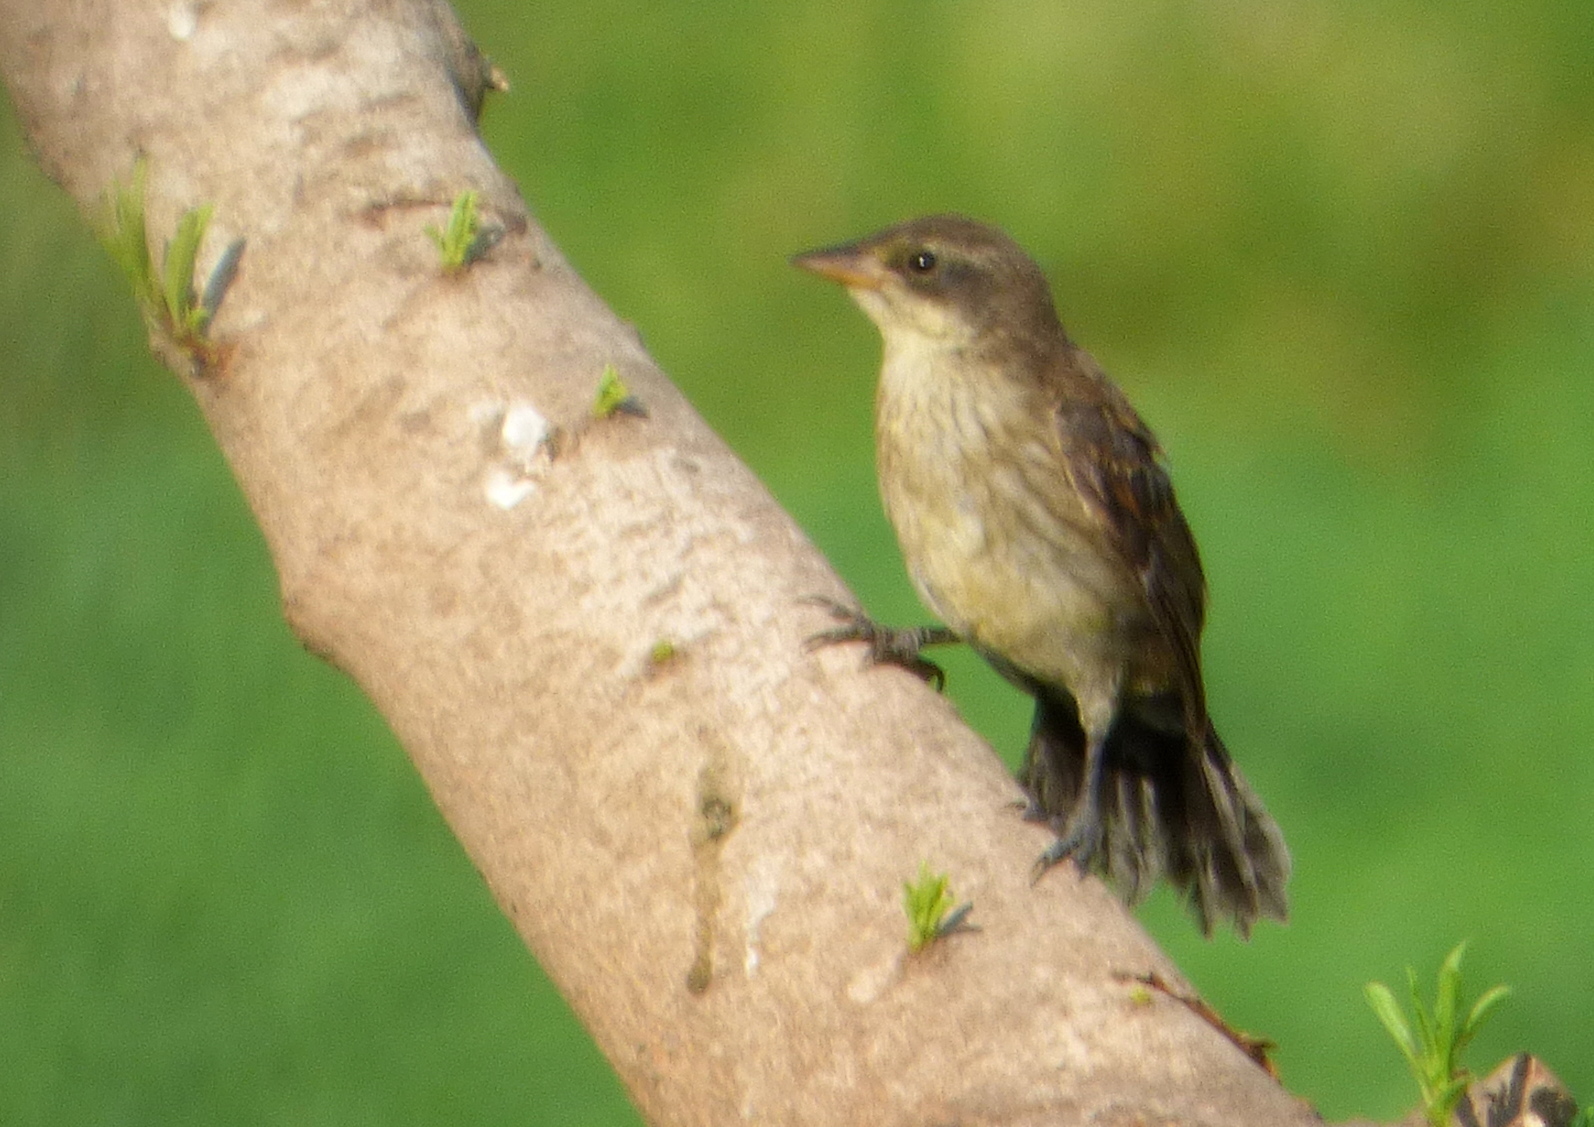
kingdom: Animalia
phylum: Chordata
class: Aves
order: Passeriformes
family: Icteridae
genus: Agelasticus
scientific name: Agelasticus cyanopus
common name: Unicolored blackbird
